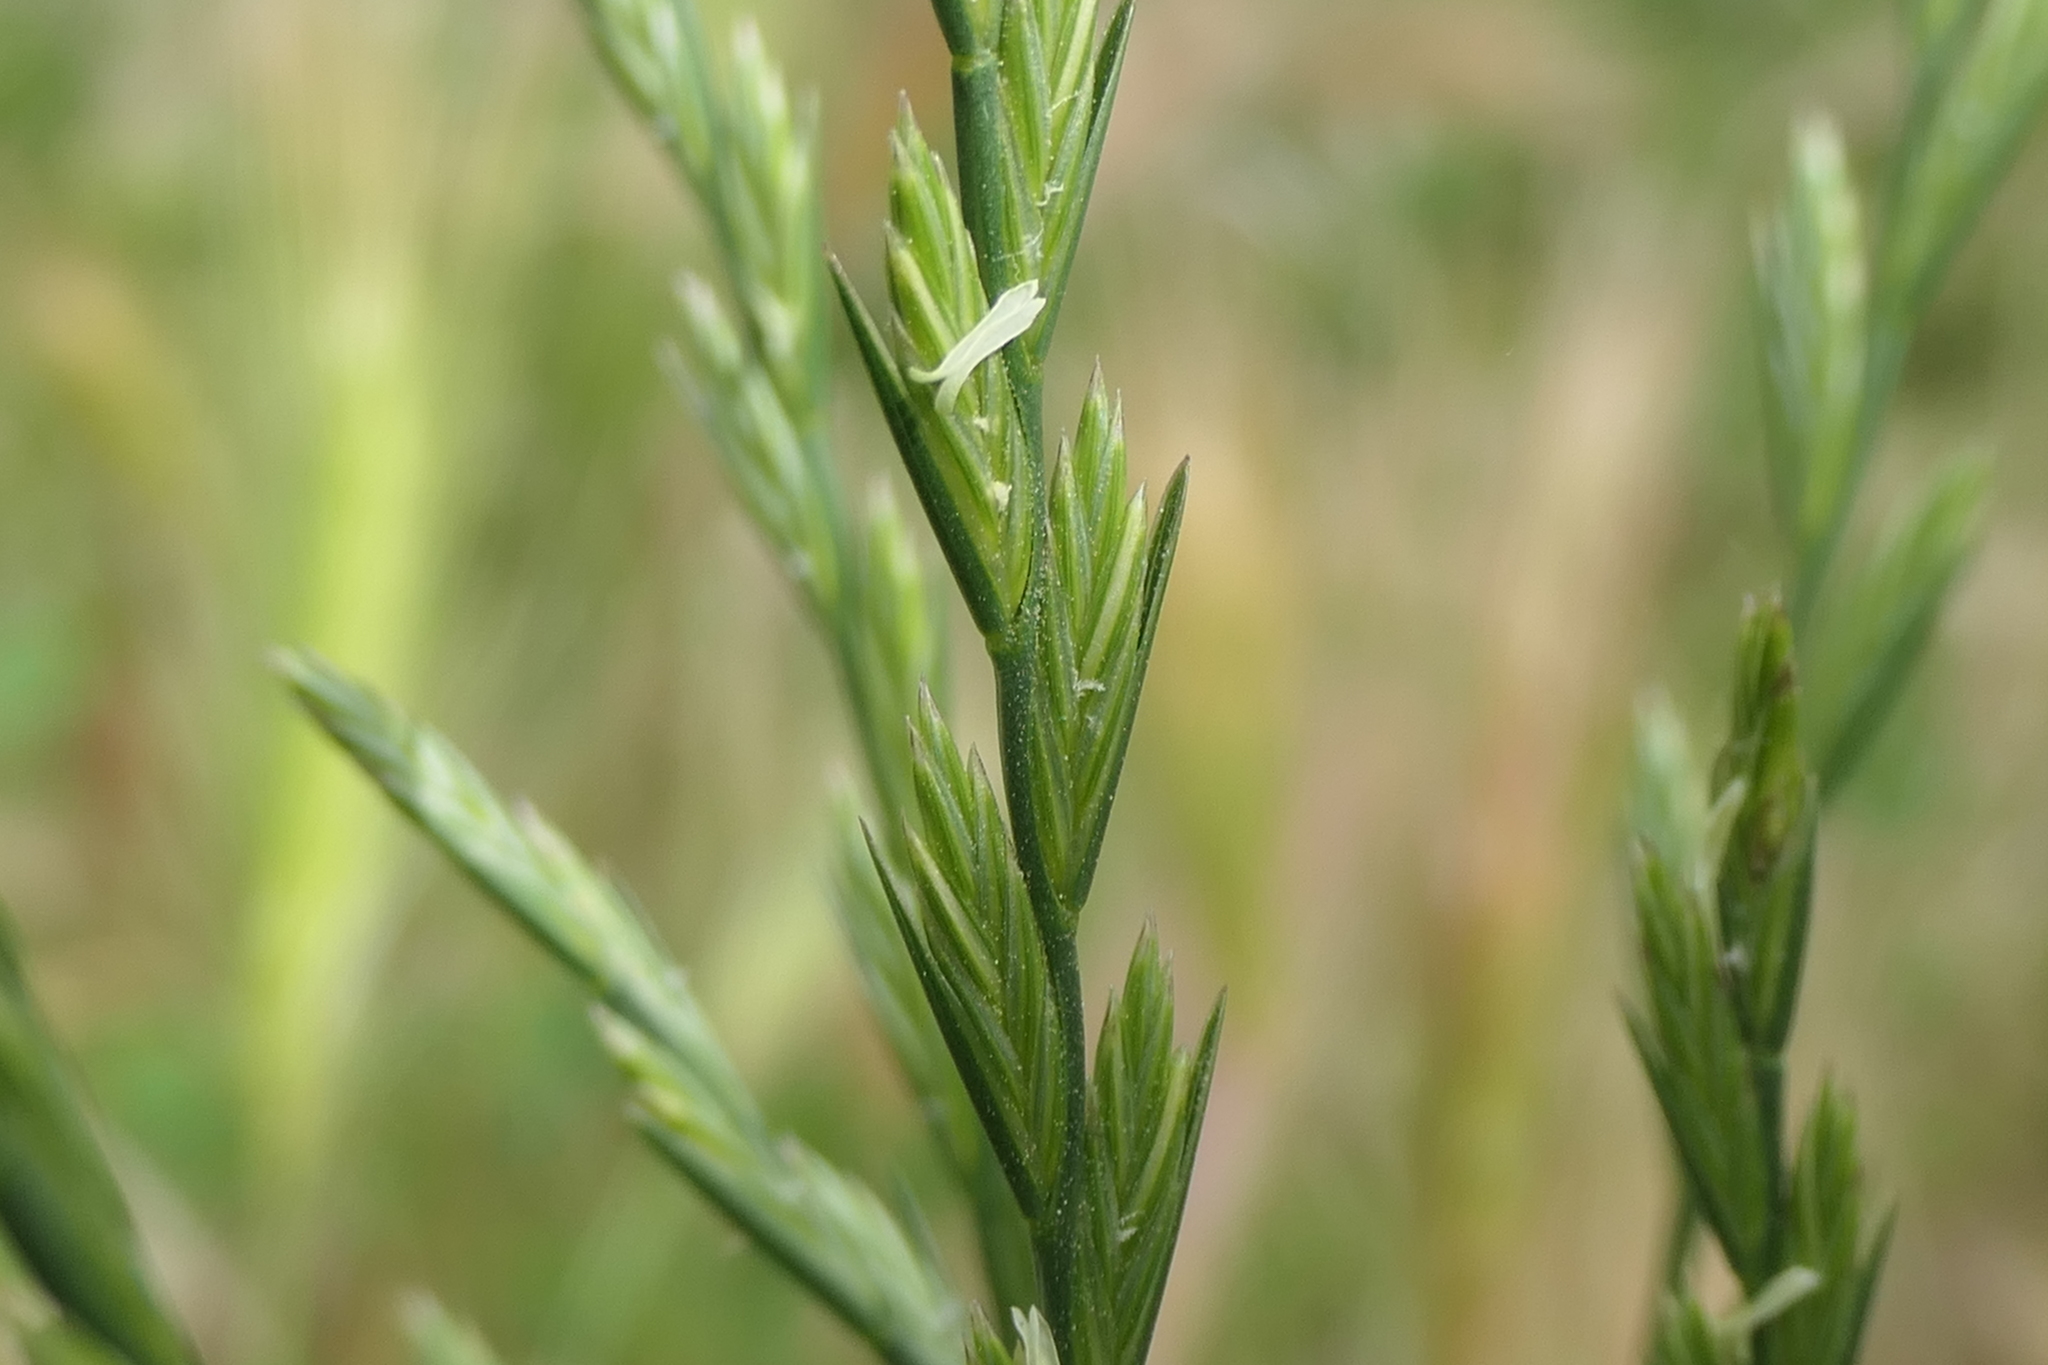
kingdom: Plantae
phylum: Tracheophyta
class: Liliopsida
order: Poales
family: Poaceae
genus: Lolium
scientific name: Lolium perenne
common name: Perennial ryegrass
